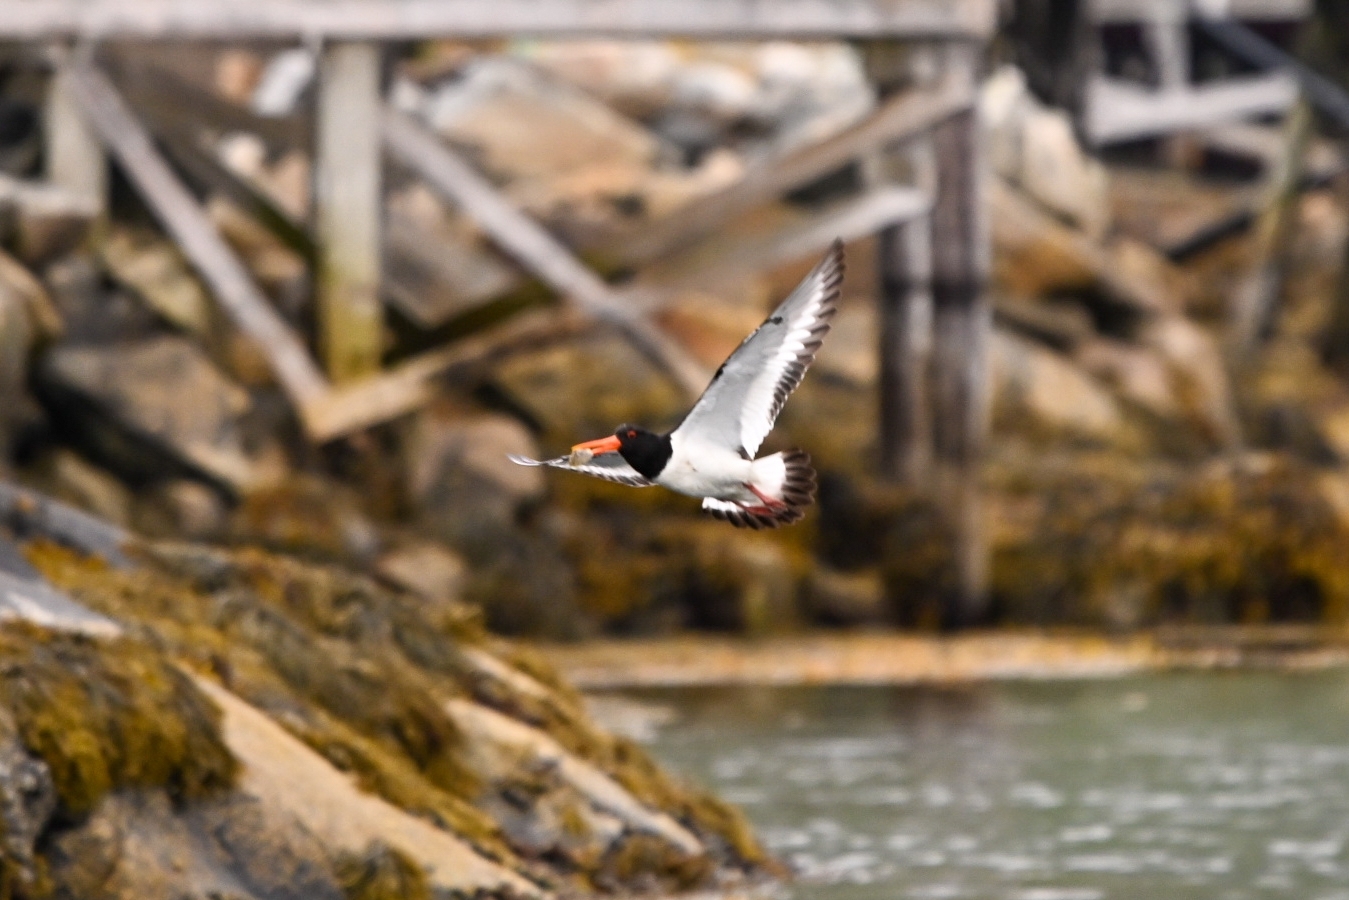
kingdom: Animalia
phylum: Chordata
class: Aves
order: Charadriiformes
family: Haematopodidae
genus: Haematopus
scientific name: Haematopus ostralegus
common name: Eurasian oystercatcher
